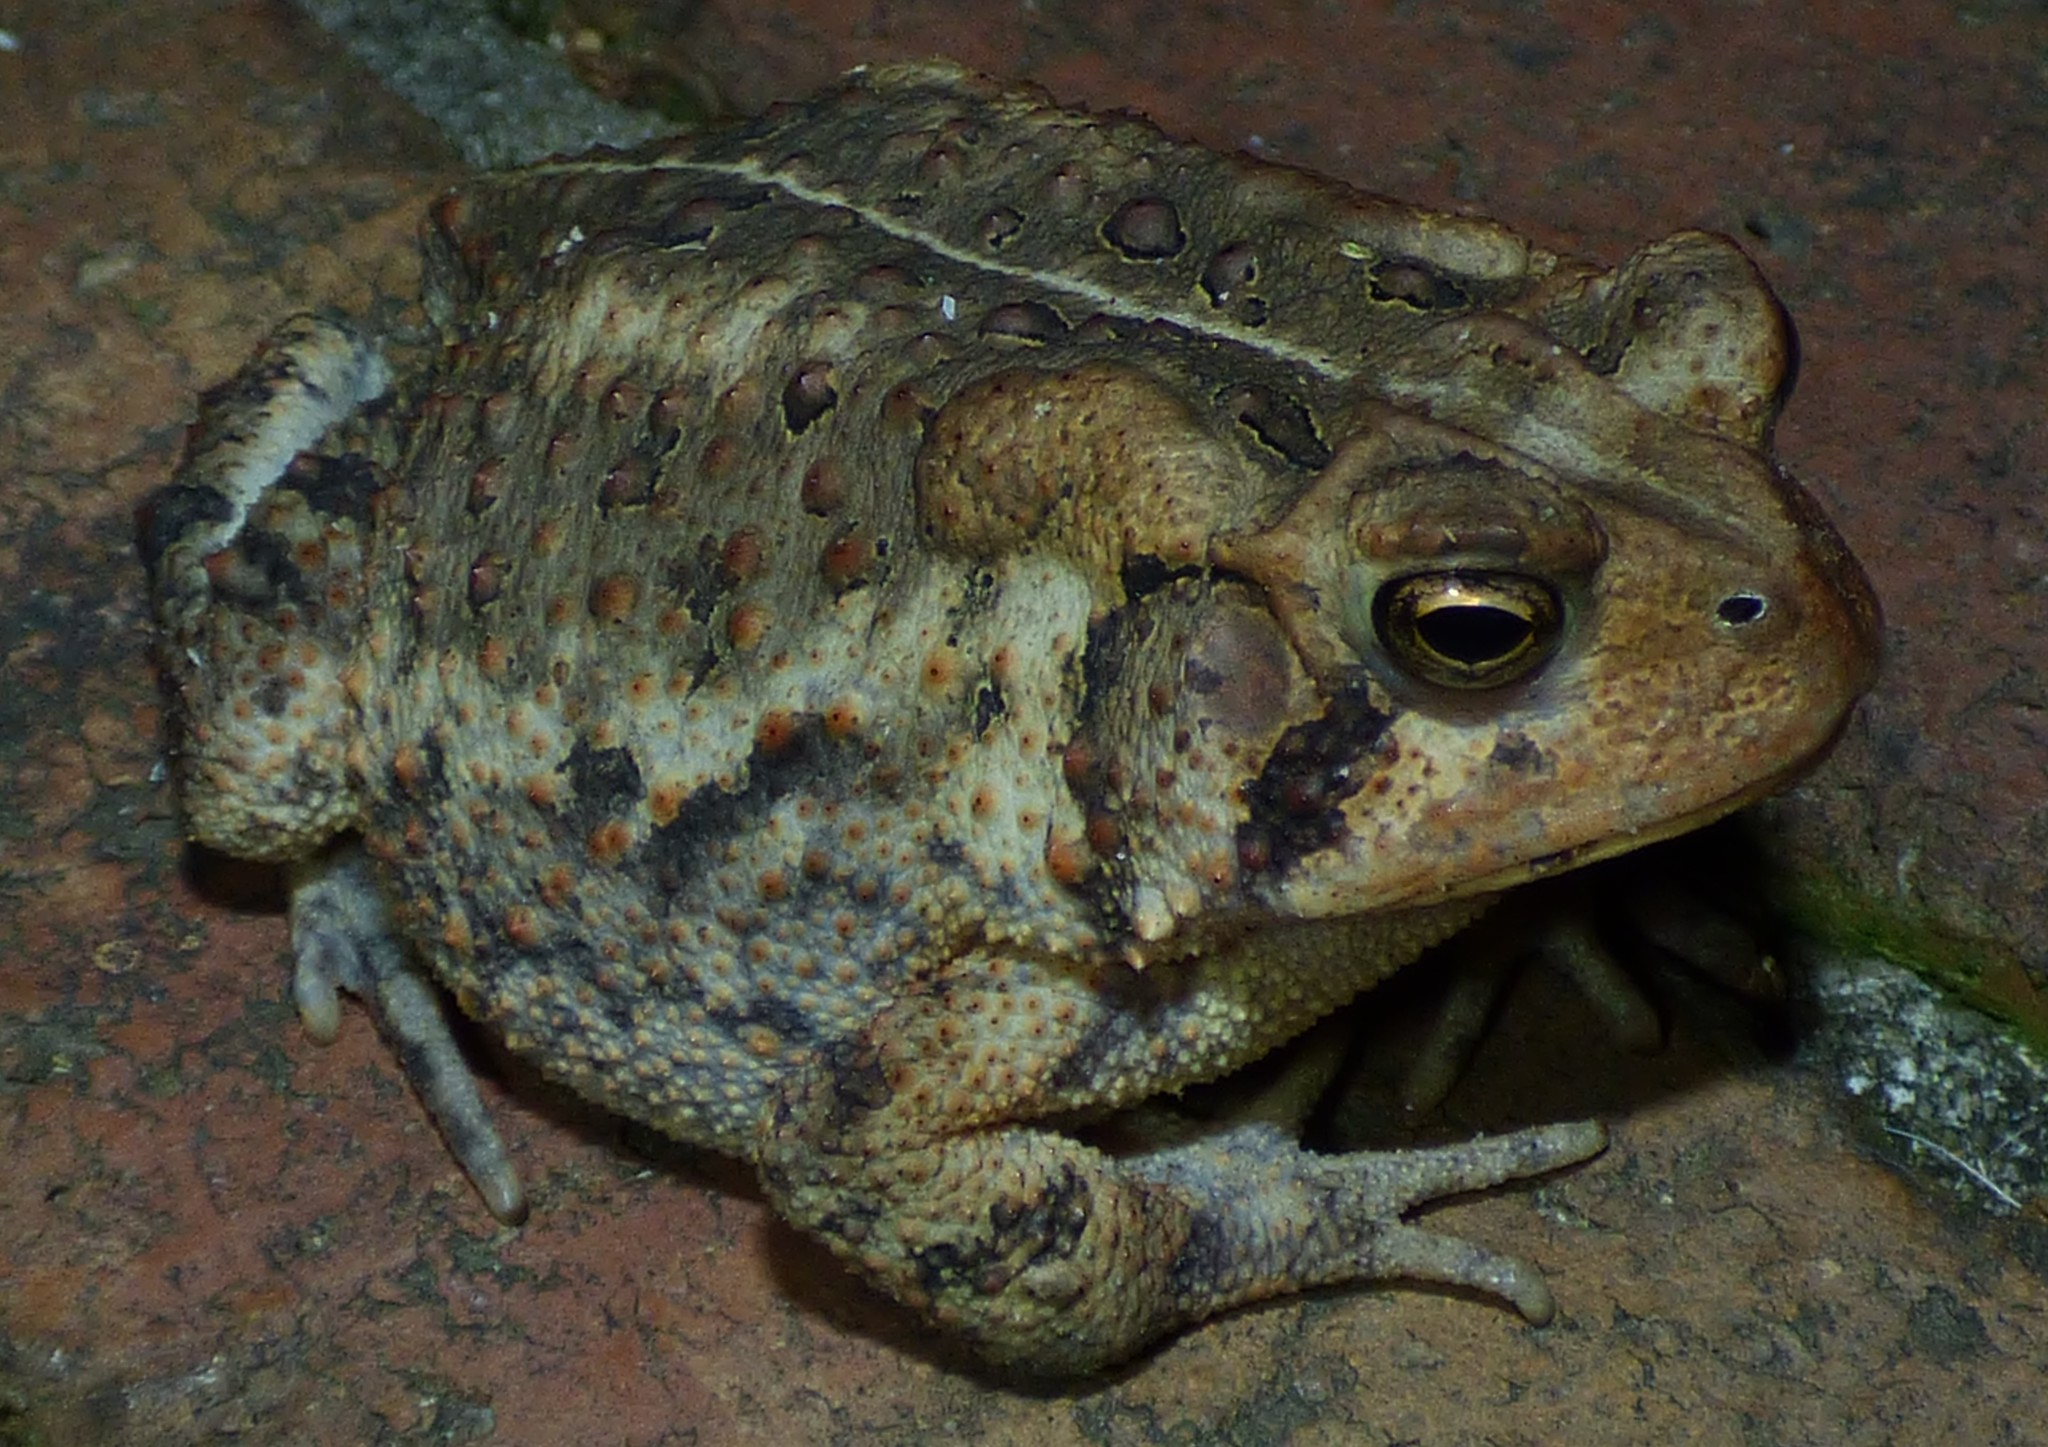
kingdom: Animalia
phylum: Chordata
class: Amphibia
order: Anura
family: Bufonidae
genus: Anaxyrus
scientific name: Anaxyrus americanus
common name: American toad
